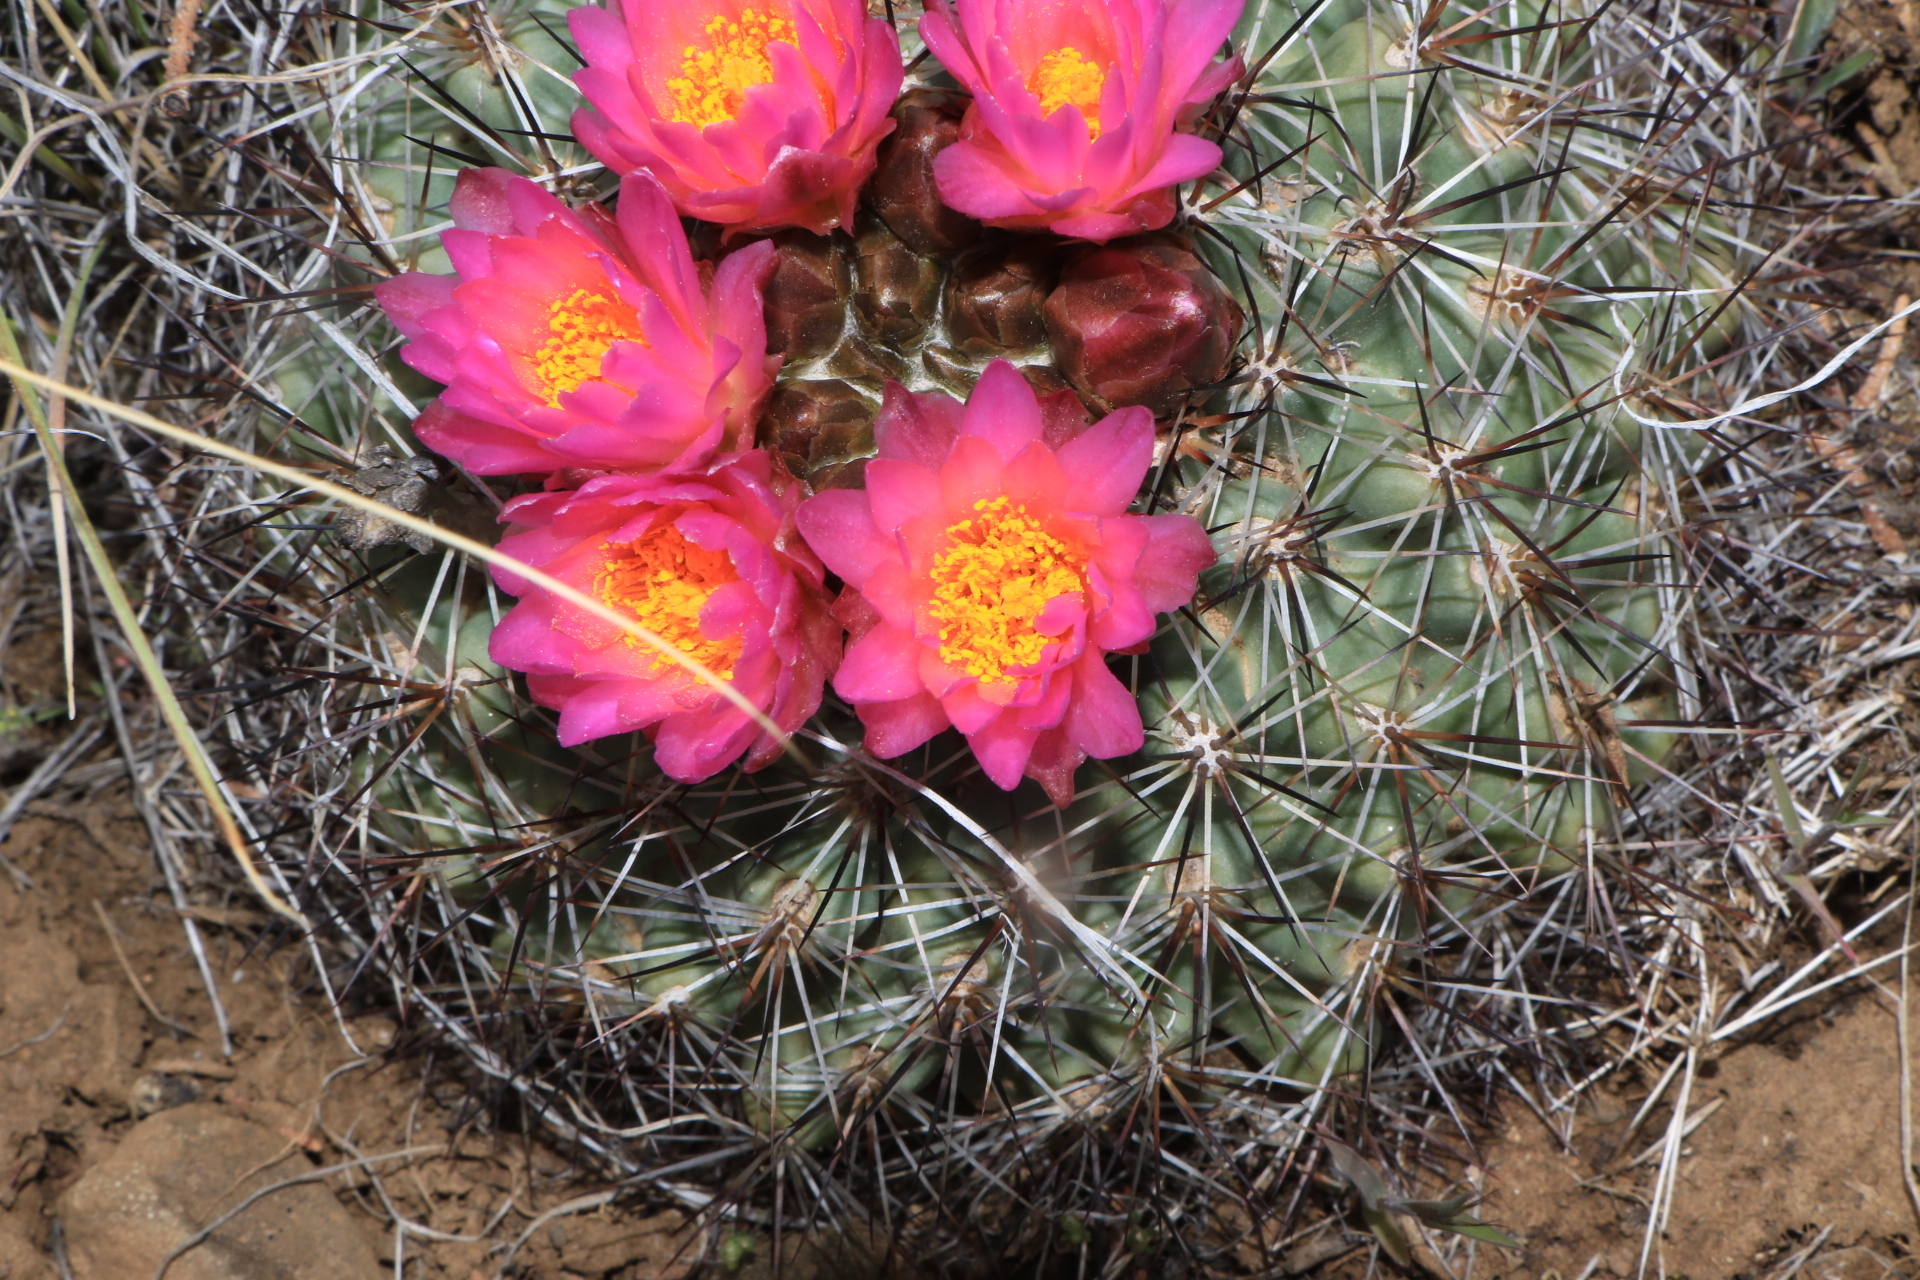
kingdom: Plantae
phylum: Tracheophyta
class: Magnoliopsida
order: Caryophyllales
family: Cactaceae
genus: Pediocactus
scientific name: Pediocactus nigrispinus
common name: Simpson's hedgehog cactus
